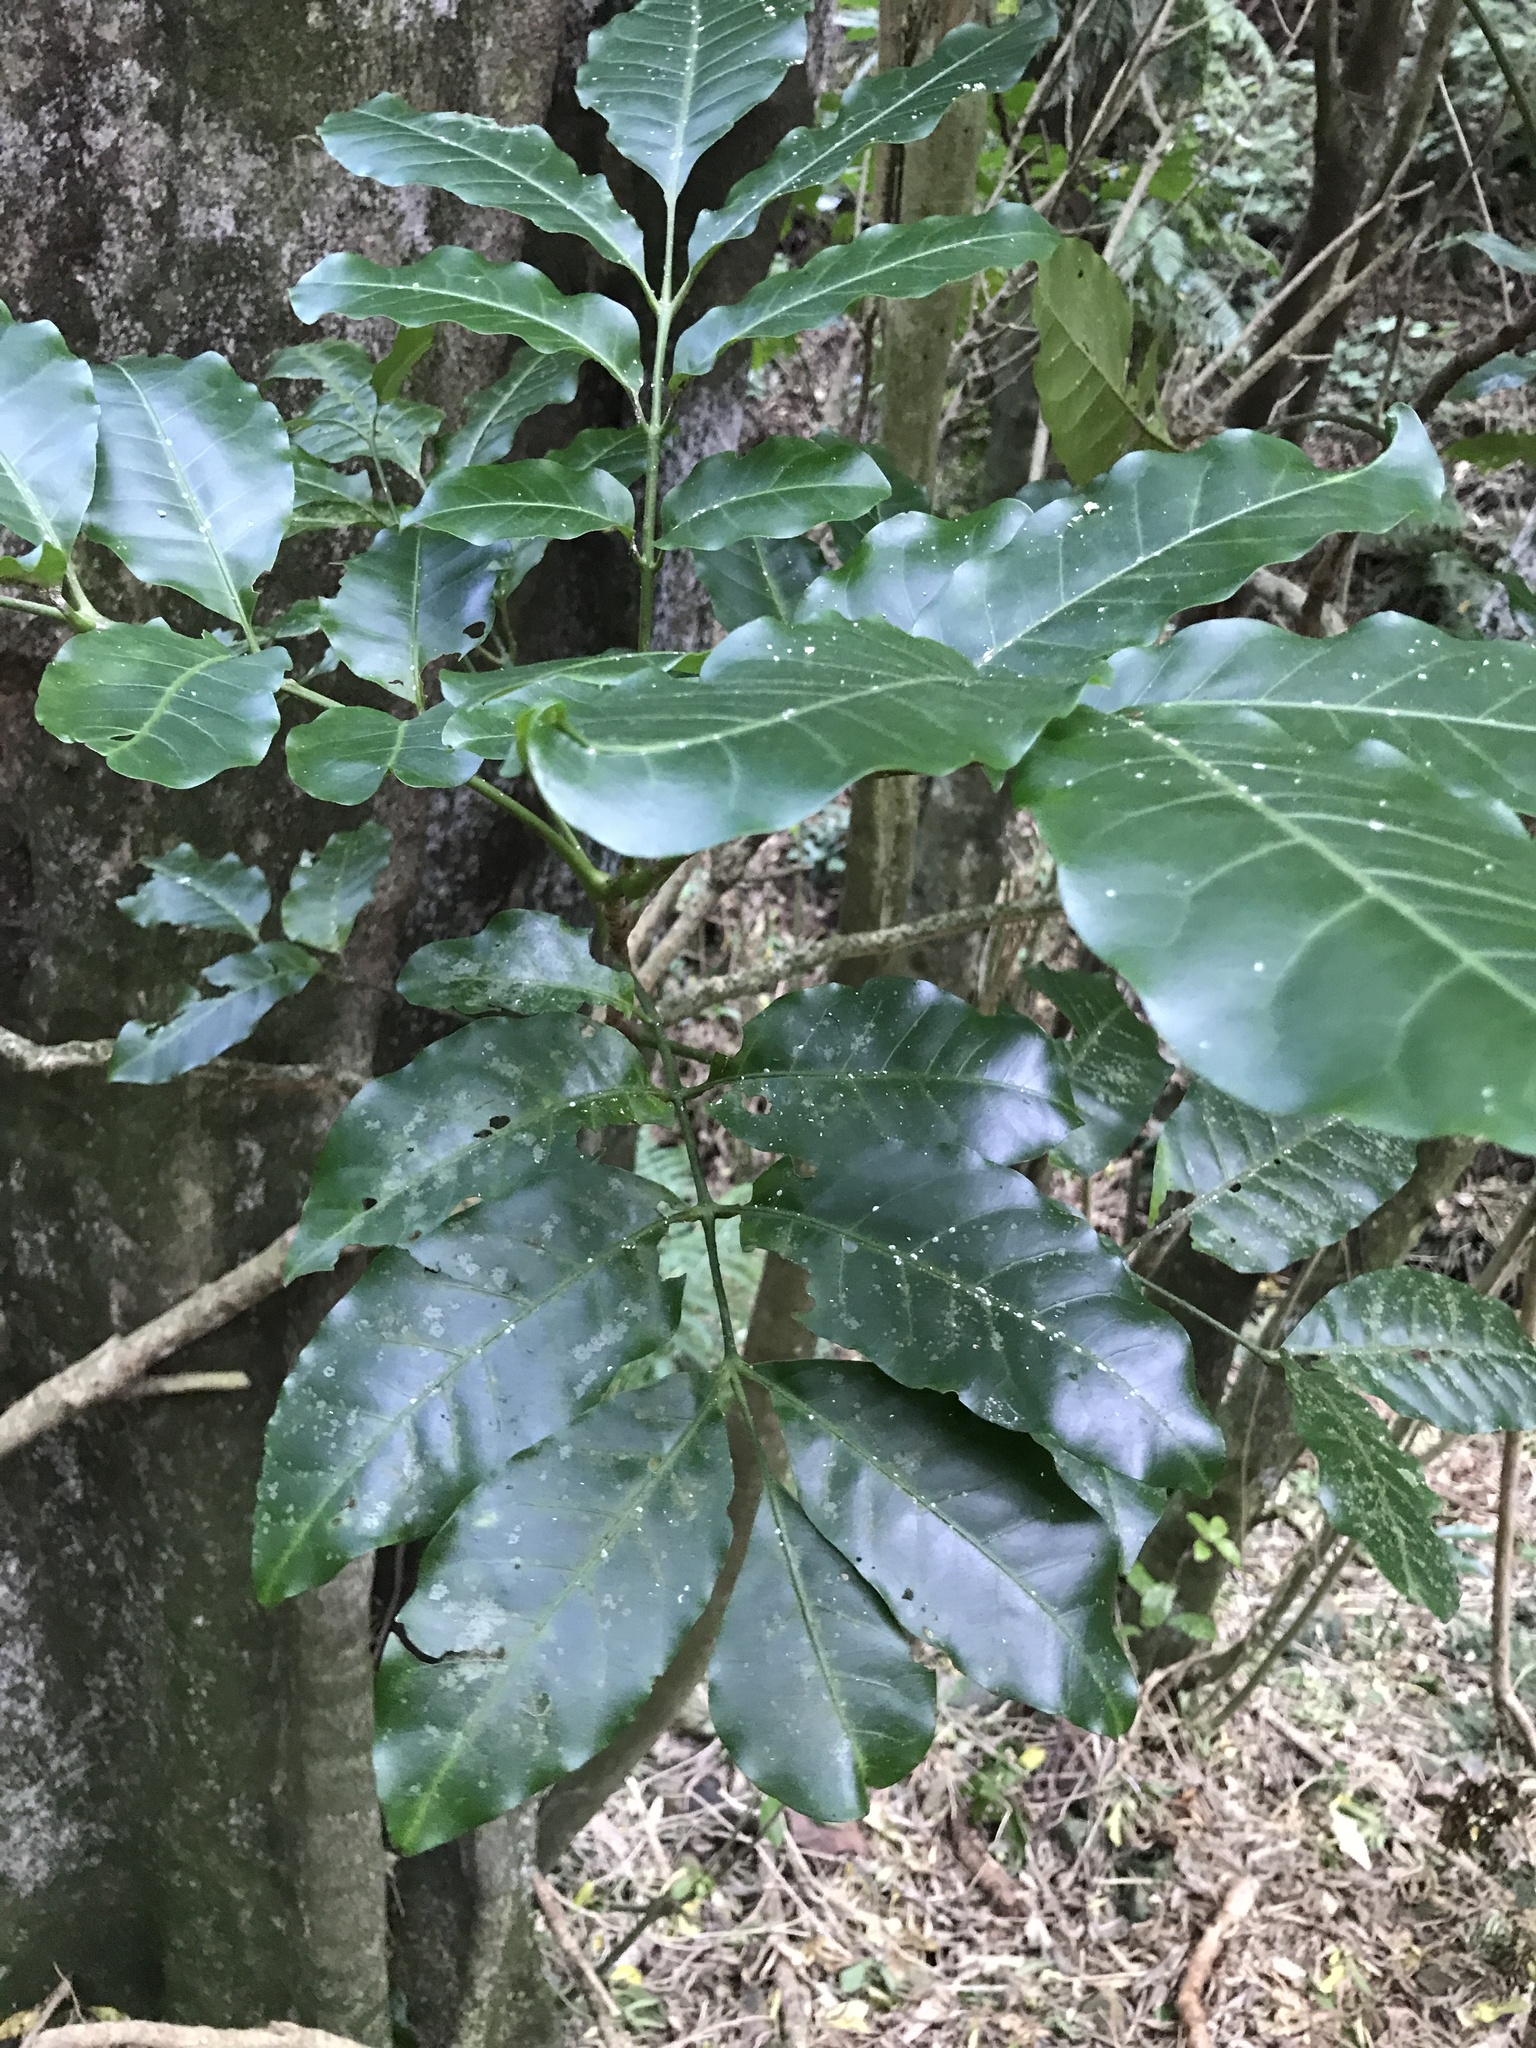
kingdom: Plantae
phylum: Tracheophyta
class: Magnoliopsida
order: Sapindales
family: Meliaceae
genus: Didymocheton
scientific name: Didymocheton spectabilis
